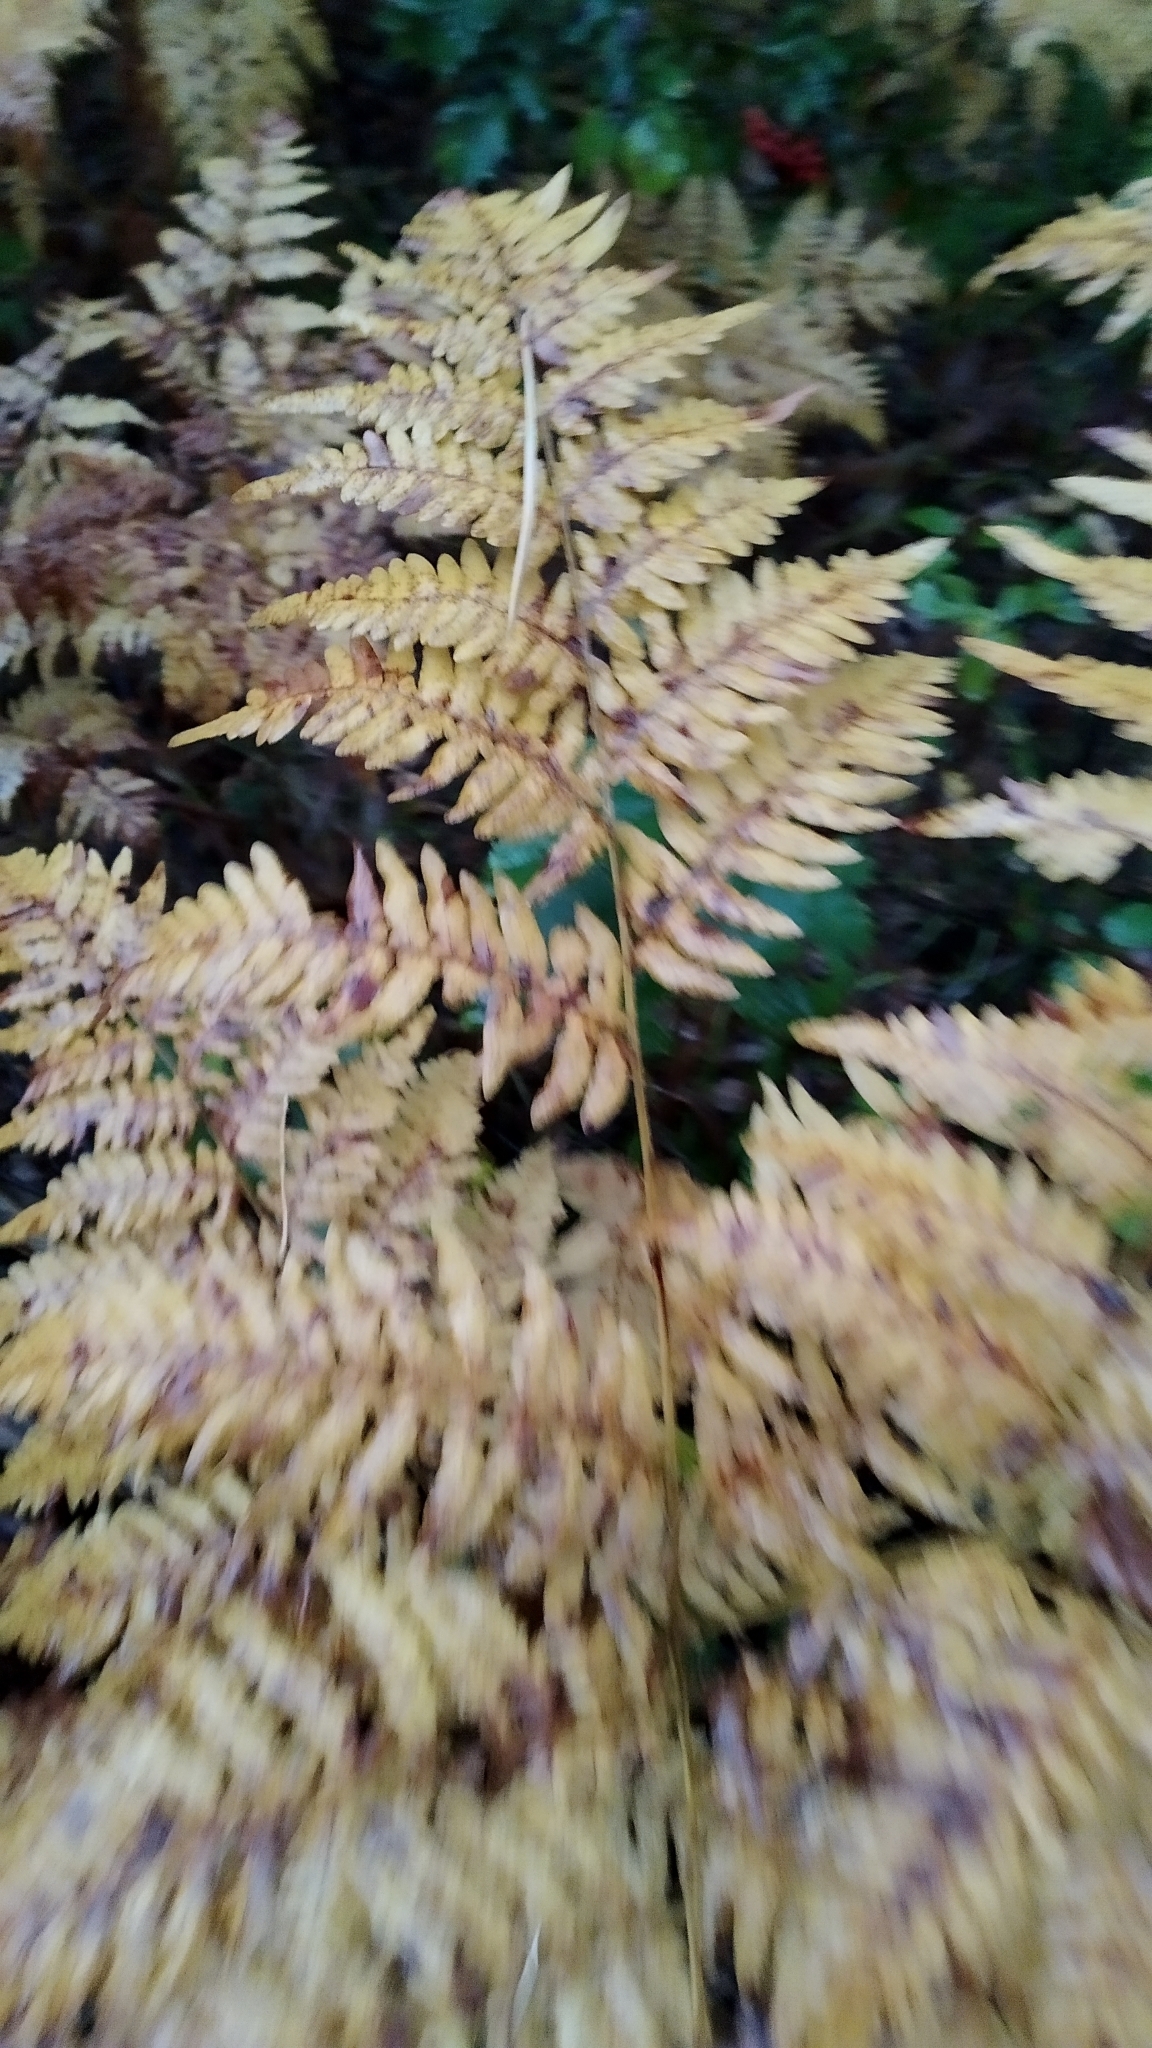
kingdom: Plantae
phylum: Tracheophyta
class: Polypodiopsida
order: Polypodiales
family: Dennstaedtiaceae
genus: Pteridium
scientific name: Pteridium aquilinum
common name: Bracken
